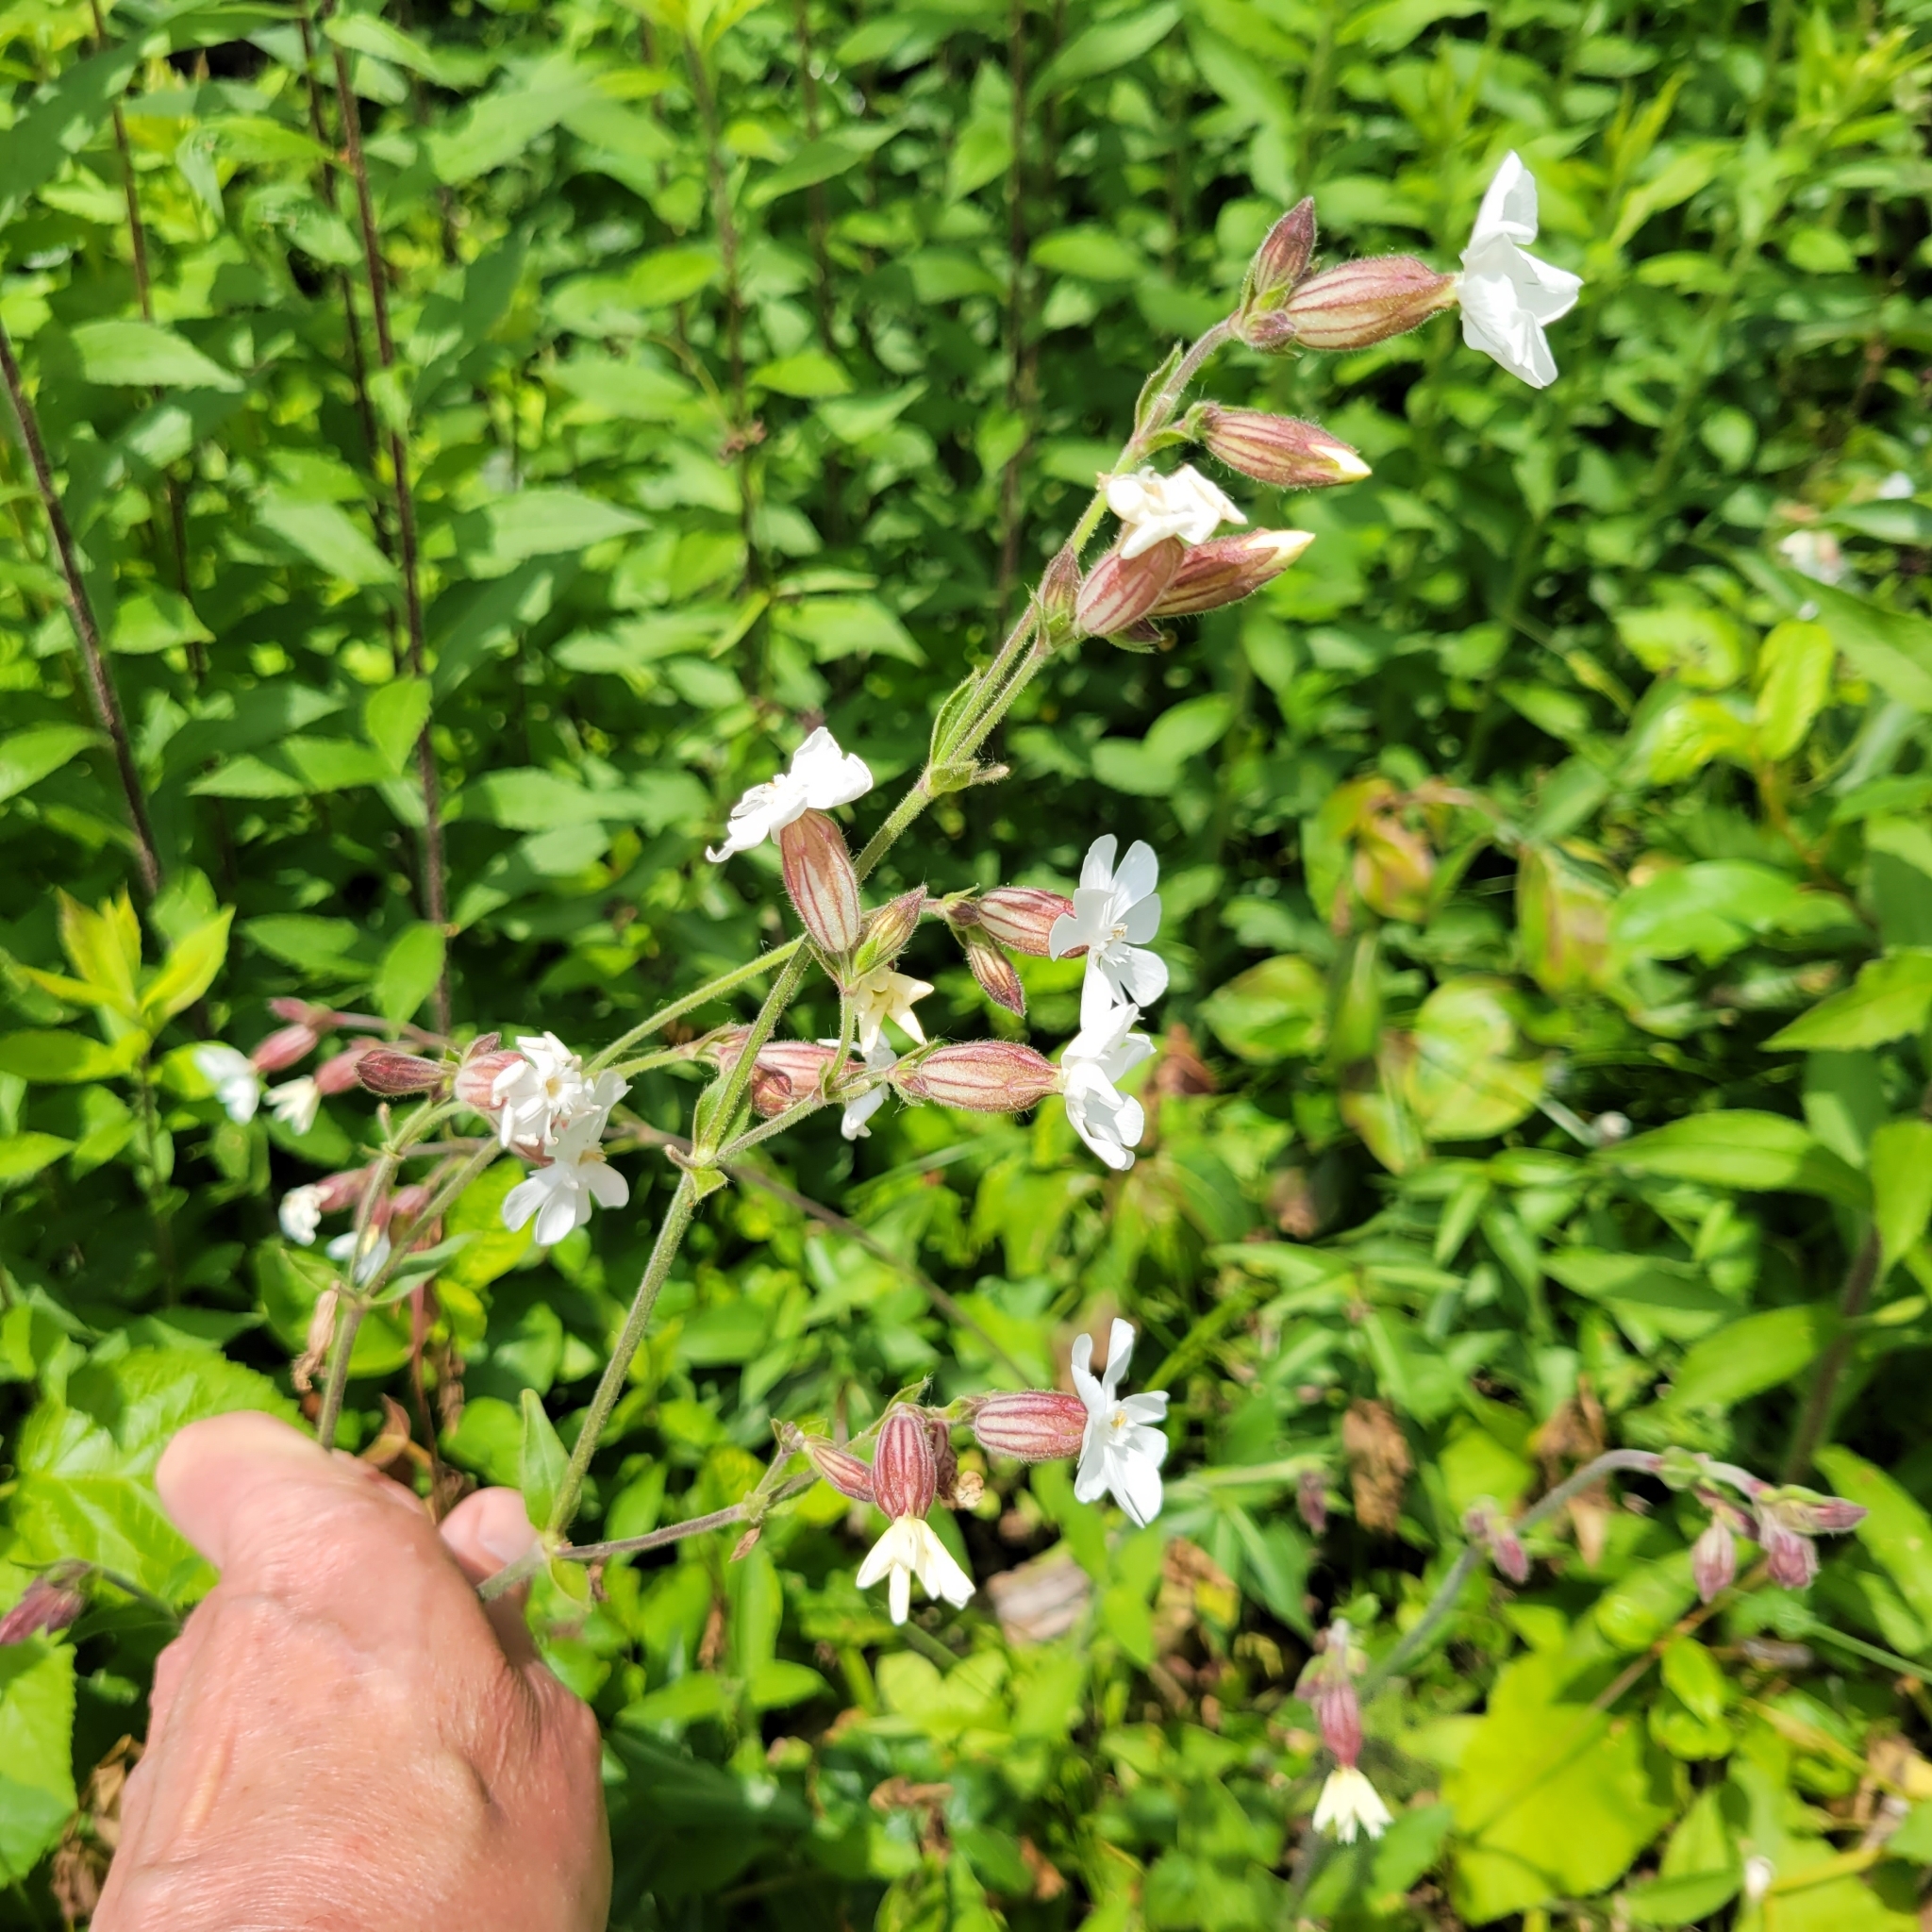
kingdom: Plantae
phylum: Tracheophyta
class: Magnoliopsida
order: Caryophyllales
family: Caryophyllaceae
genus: Silene
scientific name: Silene latifolia
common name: White campion
